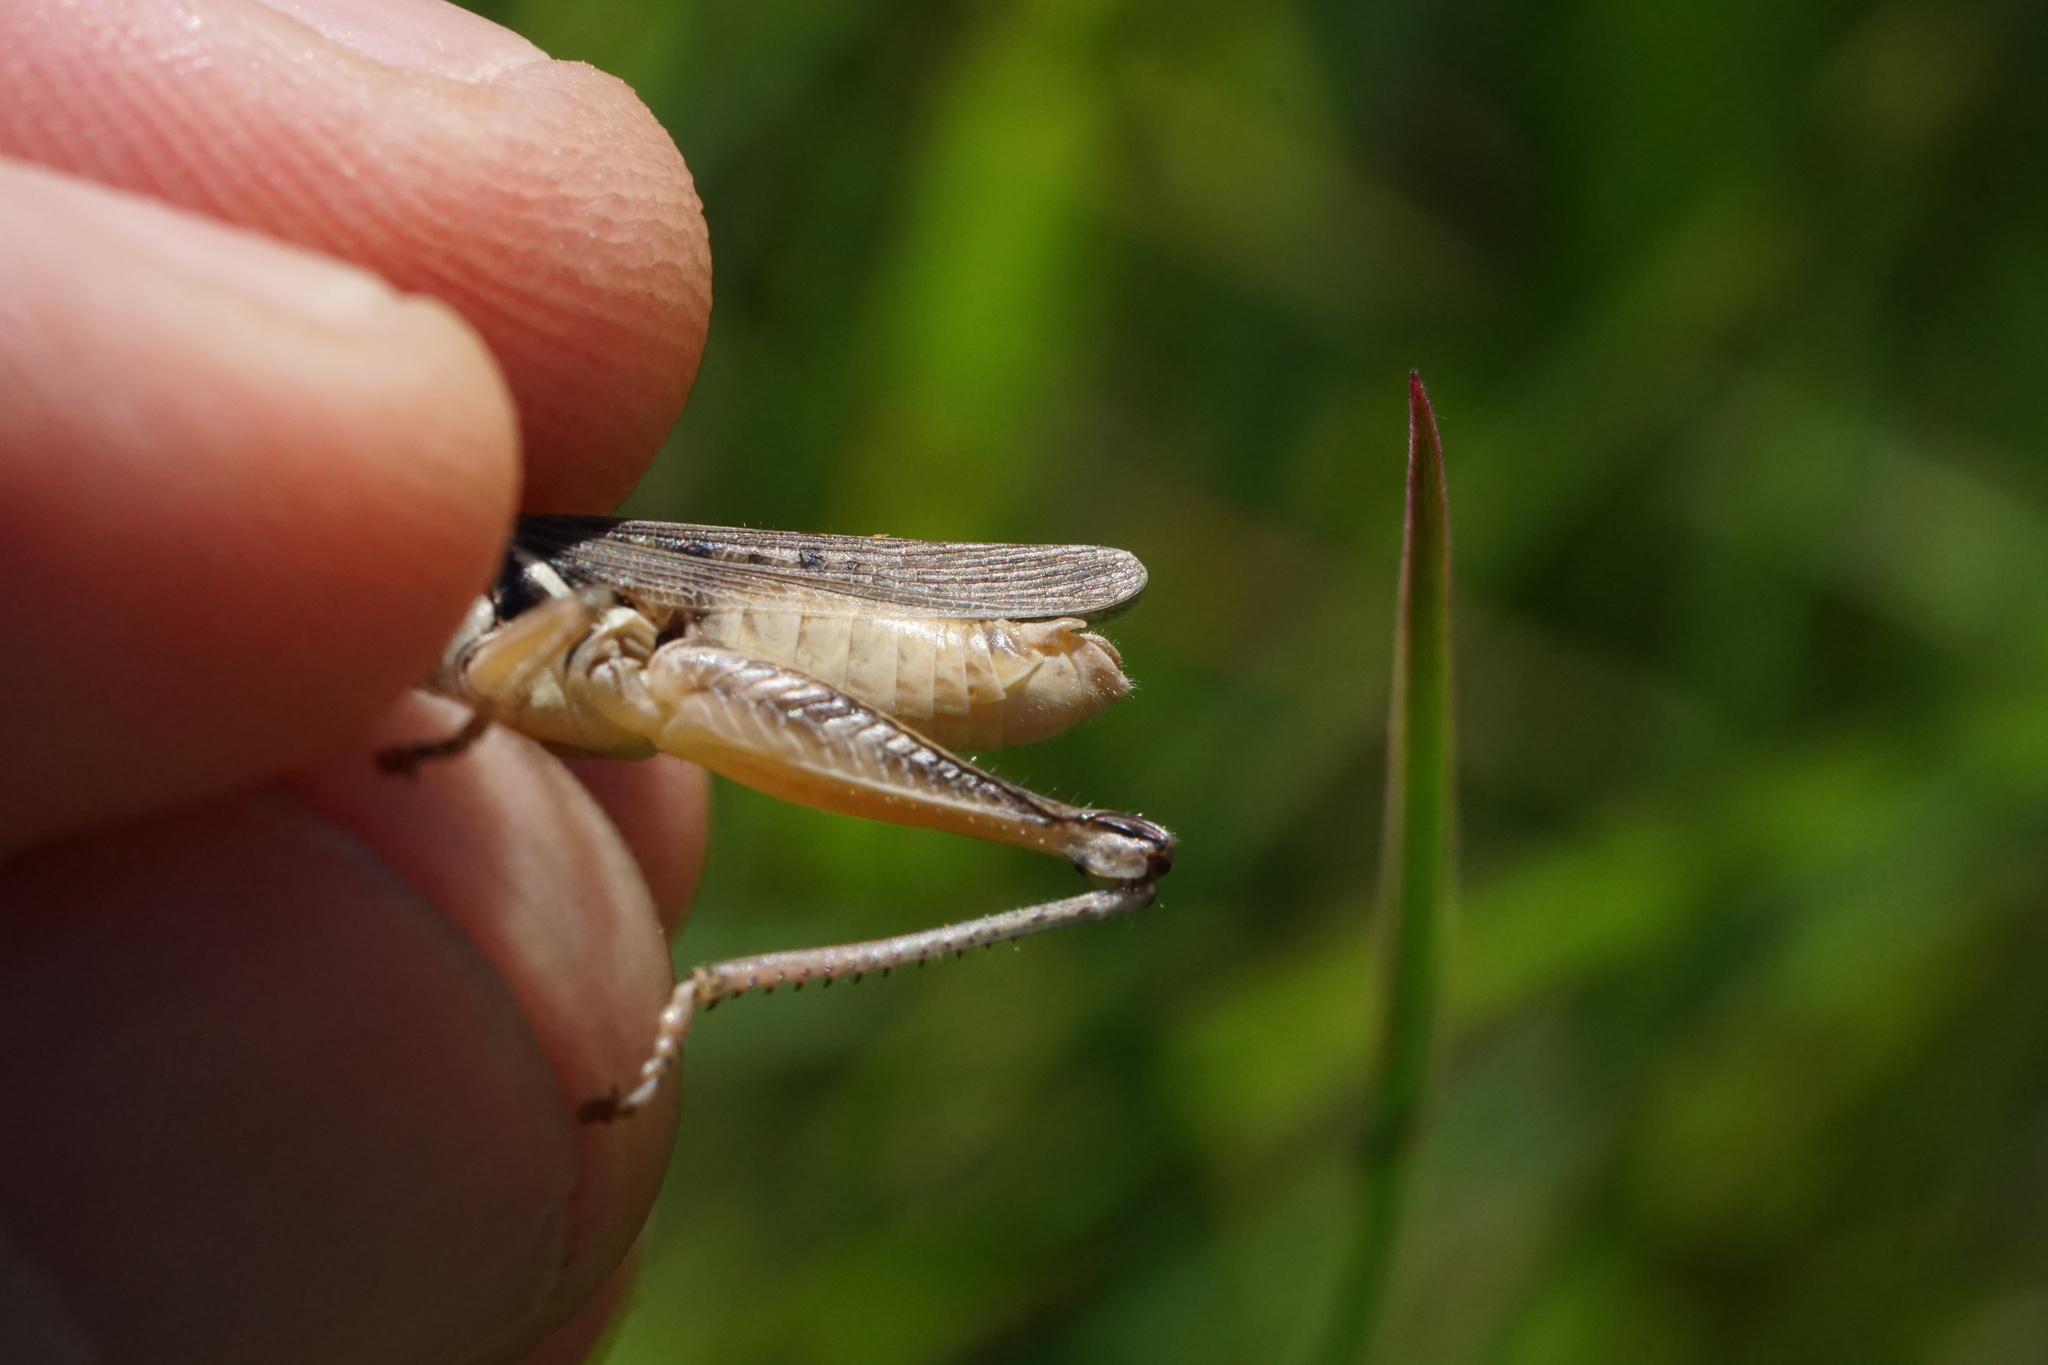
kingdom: Animalia
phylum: Arthropoda
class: Insecta
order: Orthoptera
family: Acrididae
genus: Melanoplus
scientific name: Melanoplus confusus
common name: Little pasture locust
